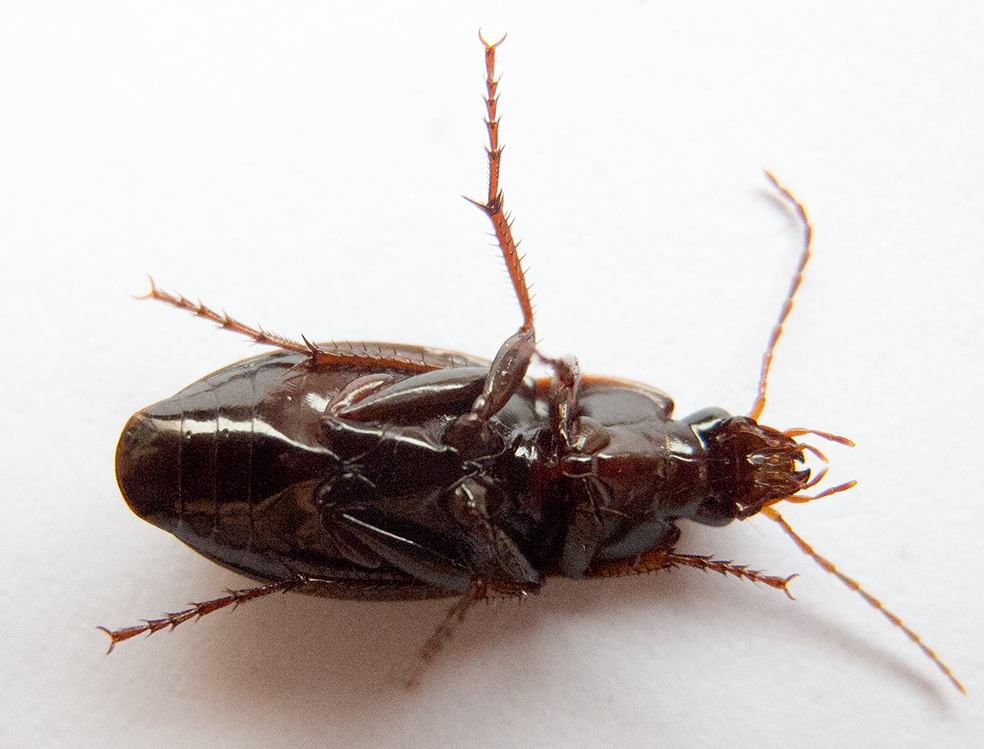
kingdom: Animalia
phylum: Arthropoda
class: Insecta
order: Coleoptera
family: Carabidae
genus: Calathus
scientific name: Calathus fuscipes
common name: Dark-footed harp ground beetle
